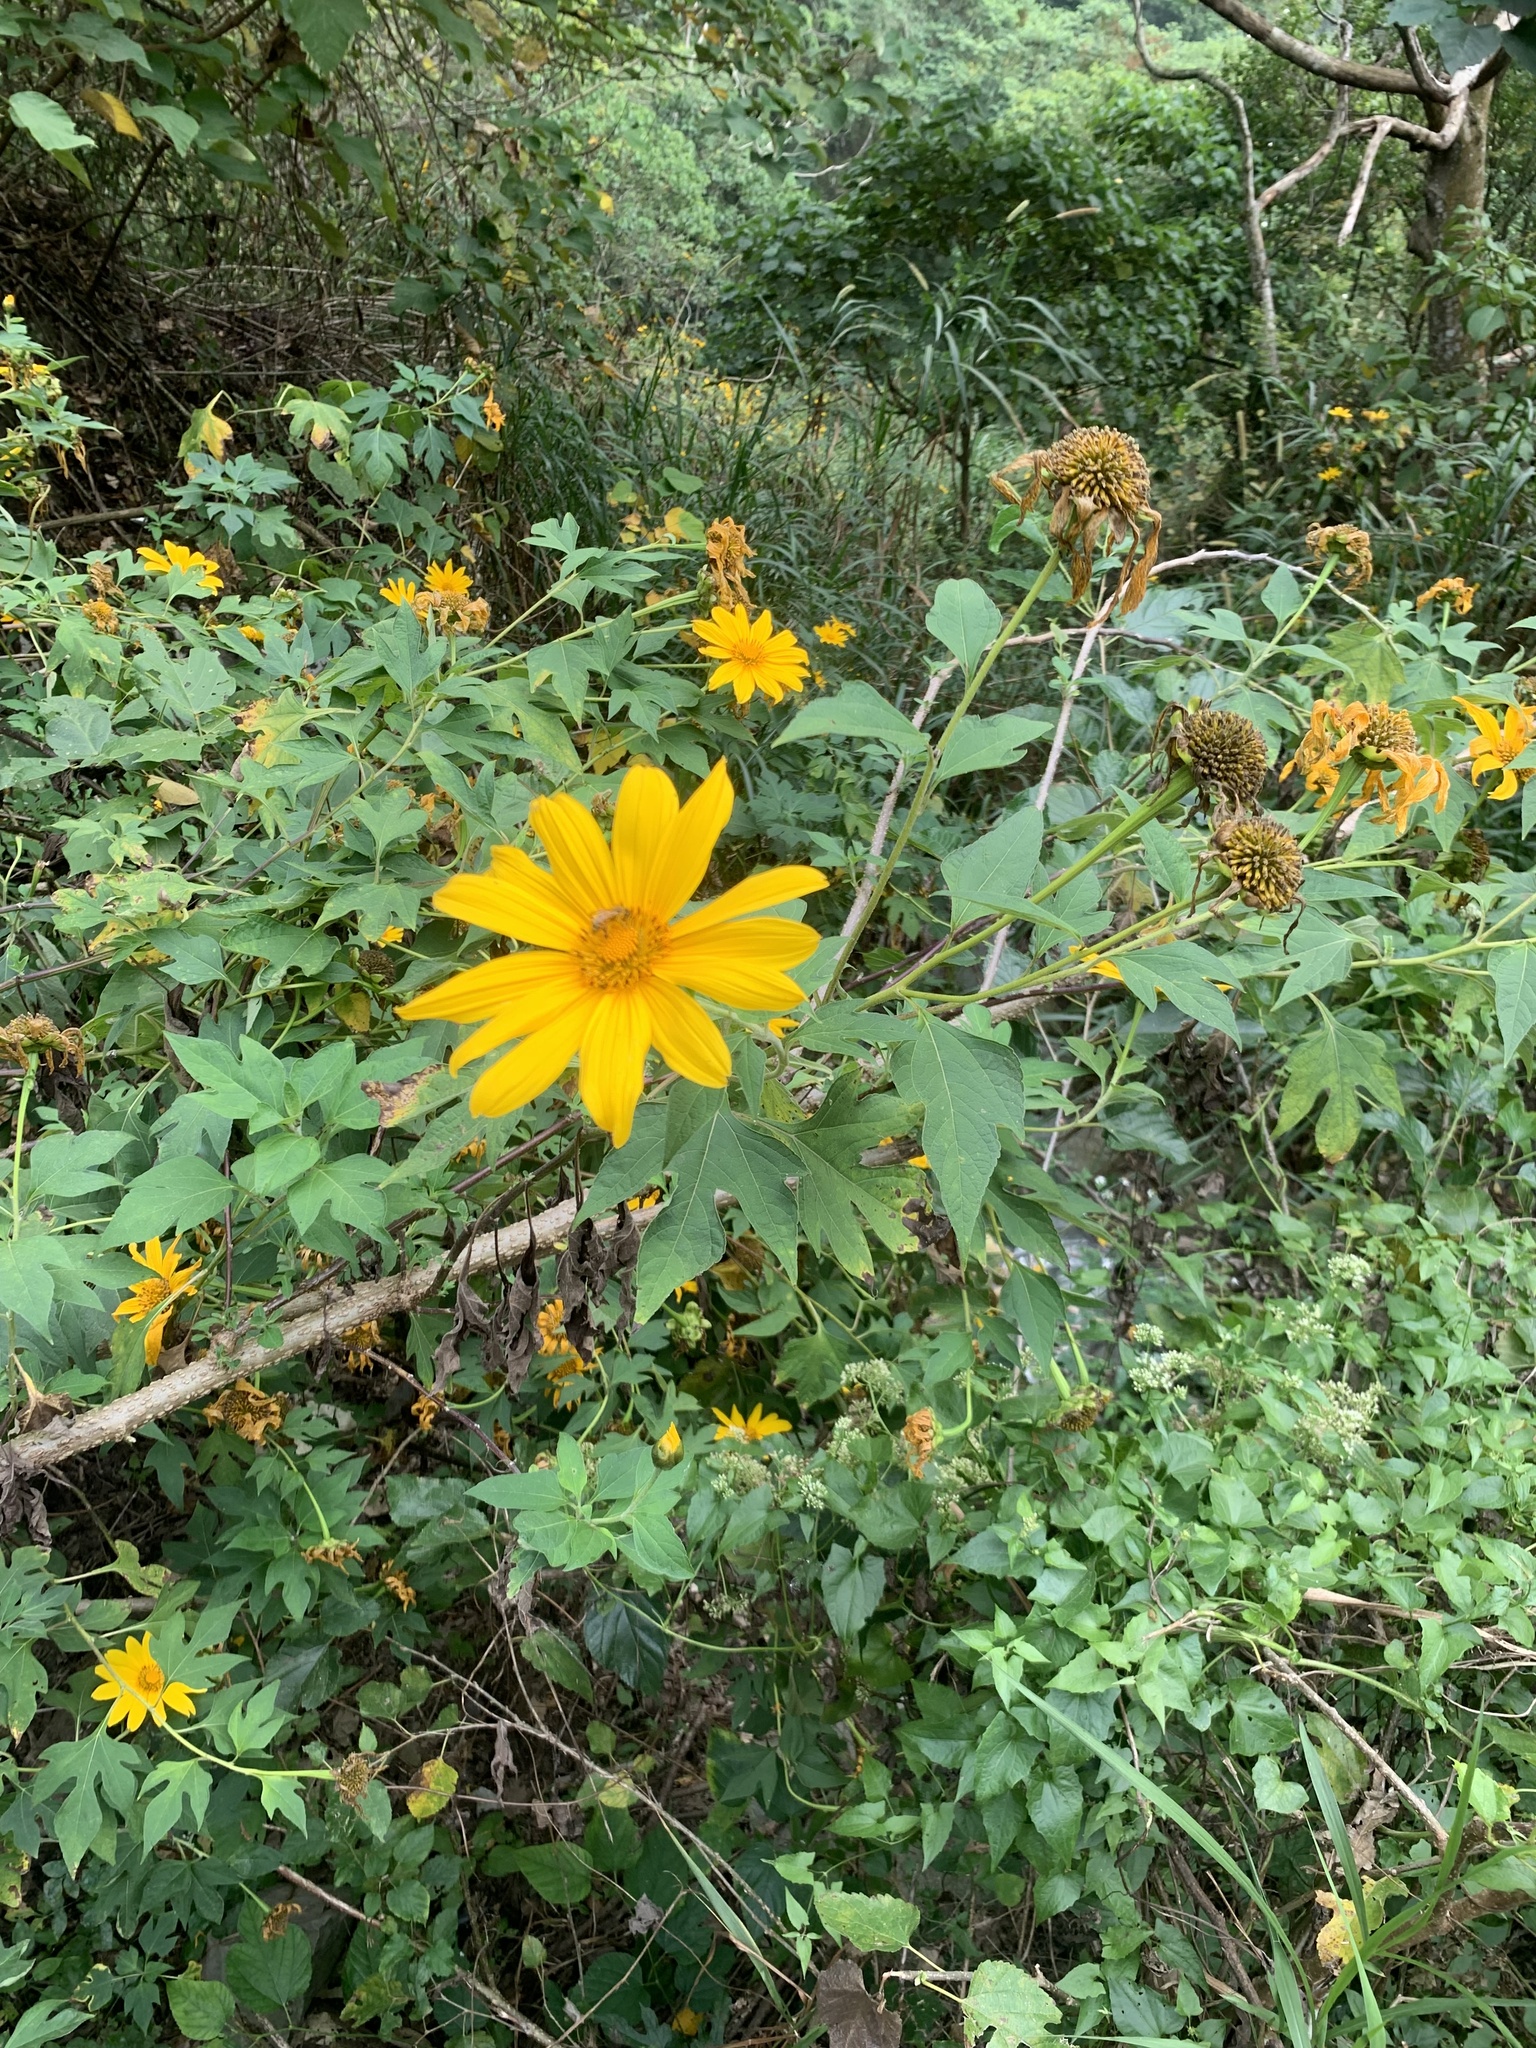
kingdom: Plantae
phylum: Tracheophyta
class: Magnoliopsida
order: Asterales
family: Asteraceae
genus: Tithonia
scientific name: Tithonia diversifolia
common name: Tree marigold
